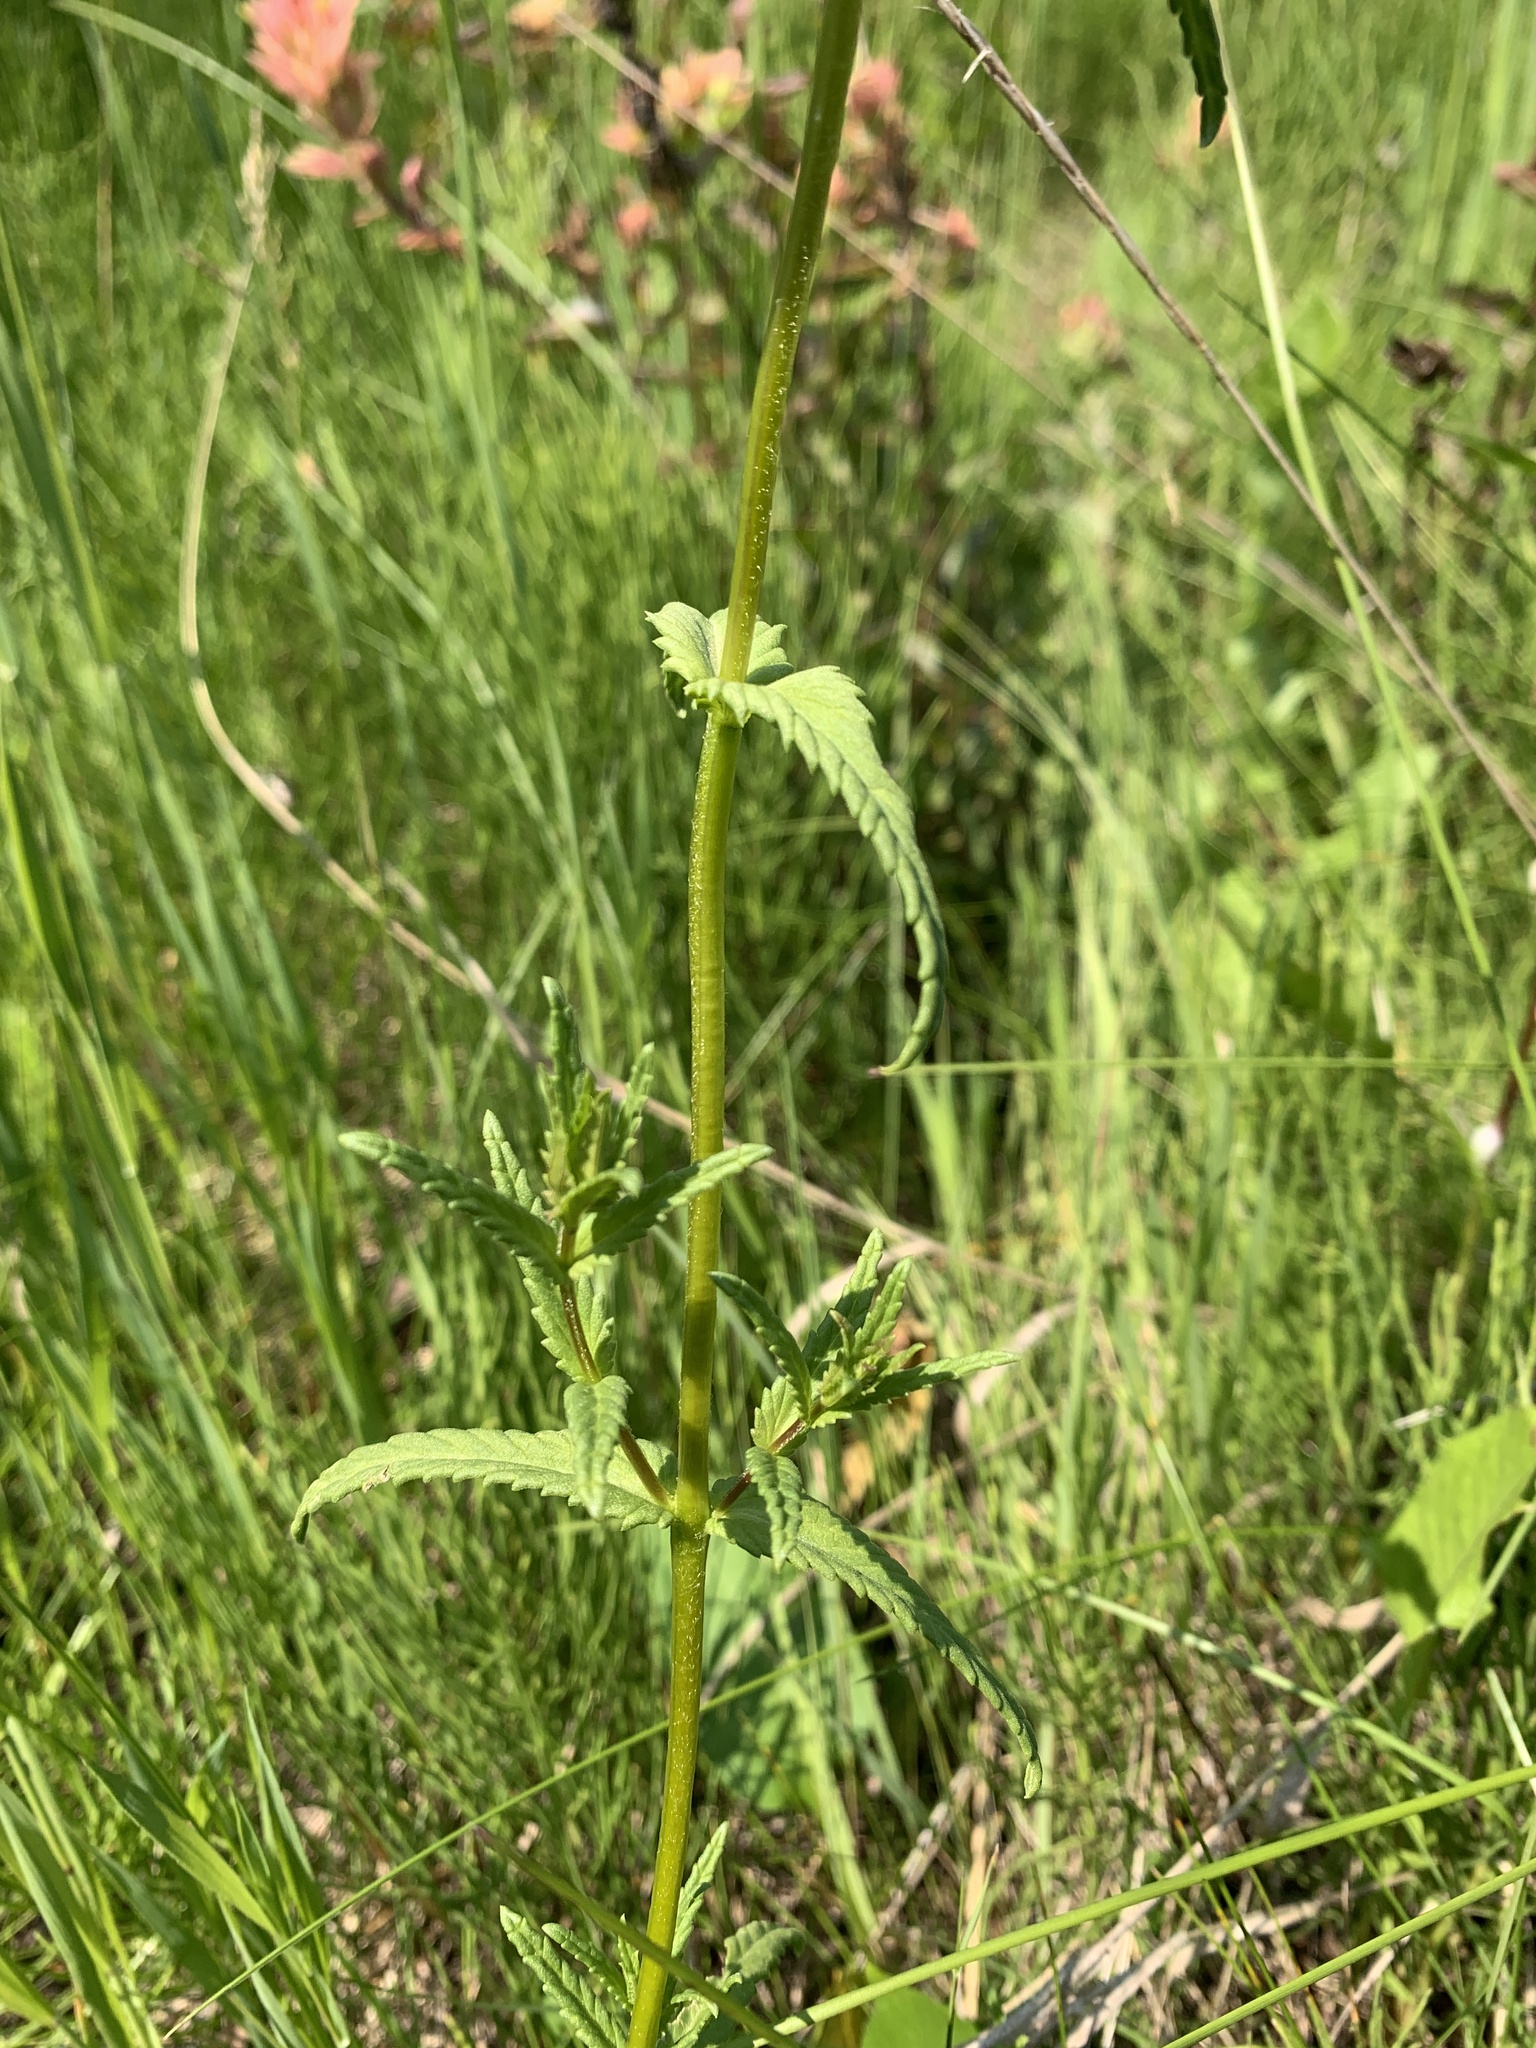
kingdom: Plantae
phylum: Tracheophyta
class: Magnoliopsida
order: Lamiales
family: Orobanchaceae
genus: Rhinanthus
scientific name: Rhinanthus groenlandicus
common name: Little yellow rattle
